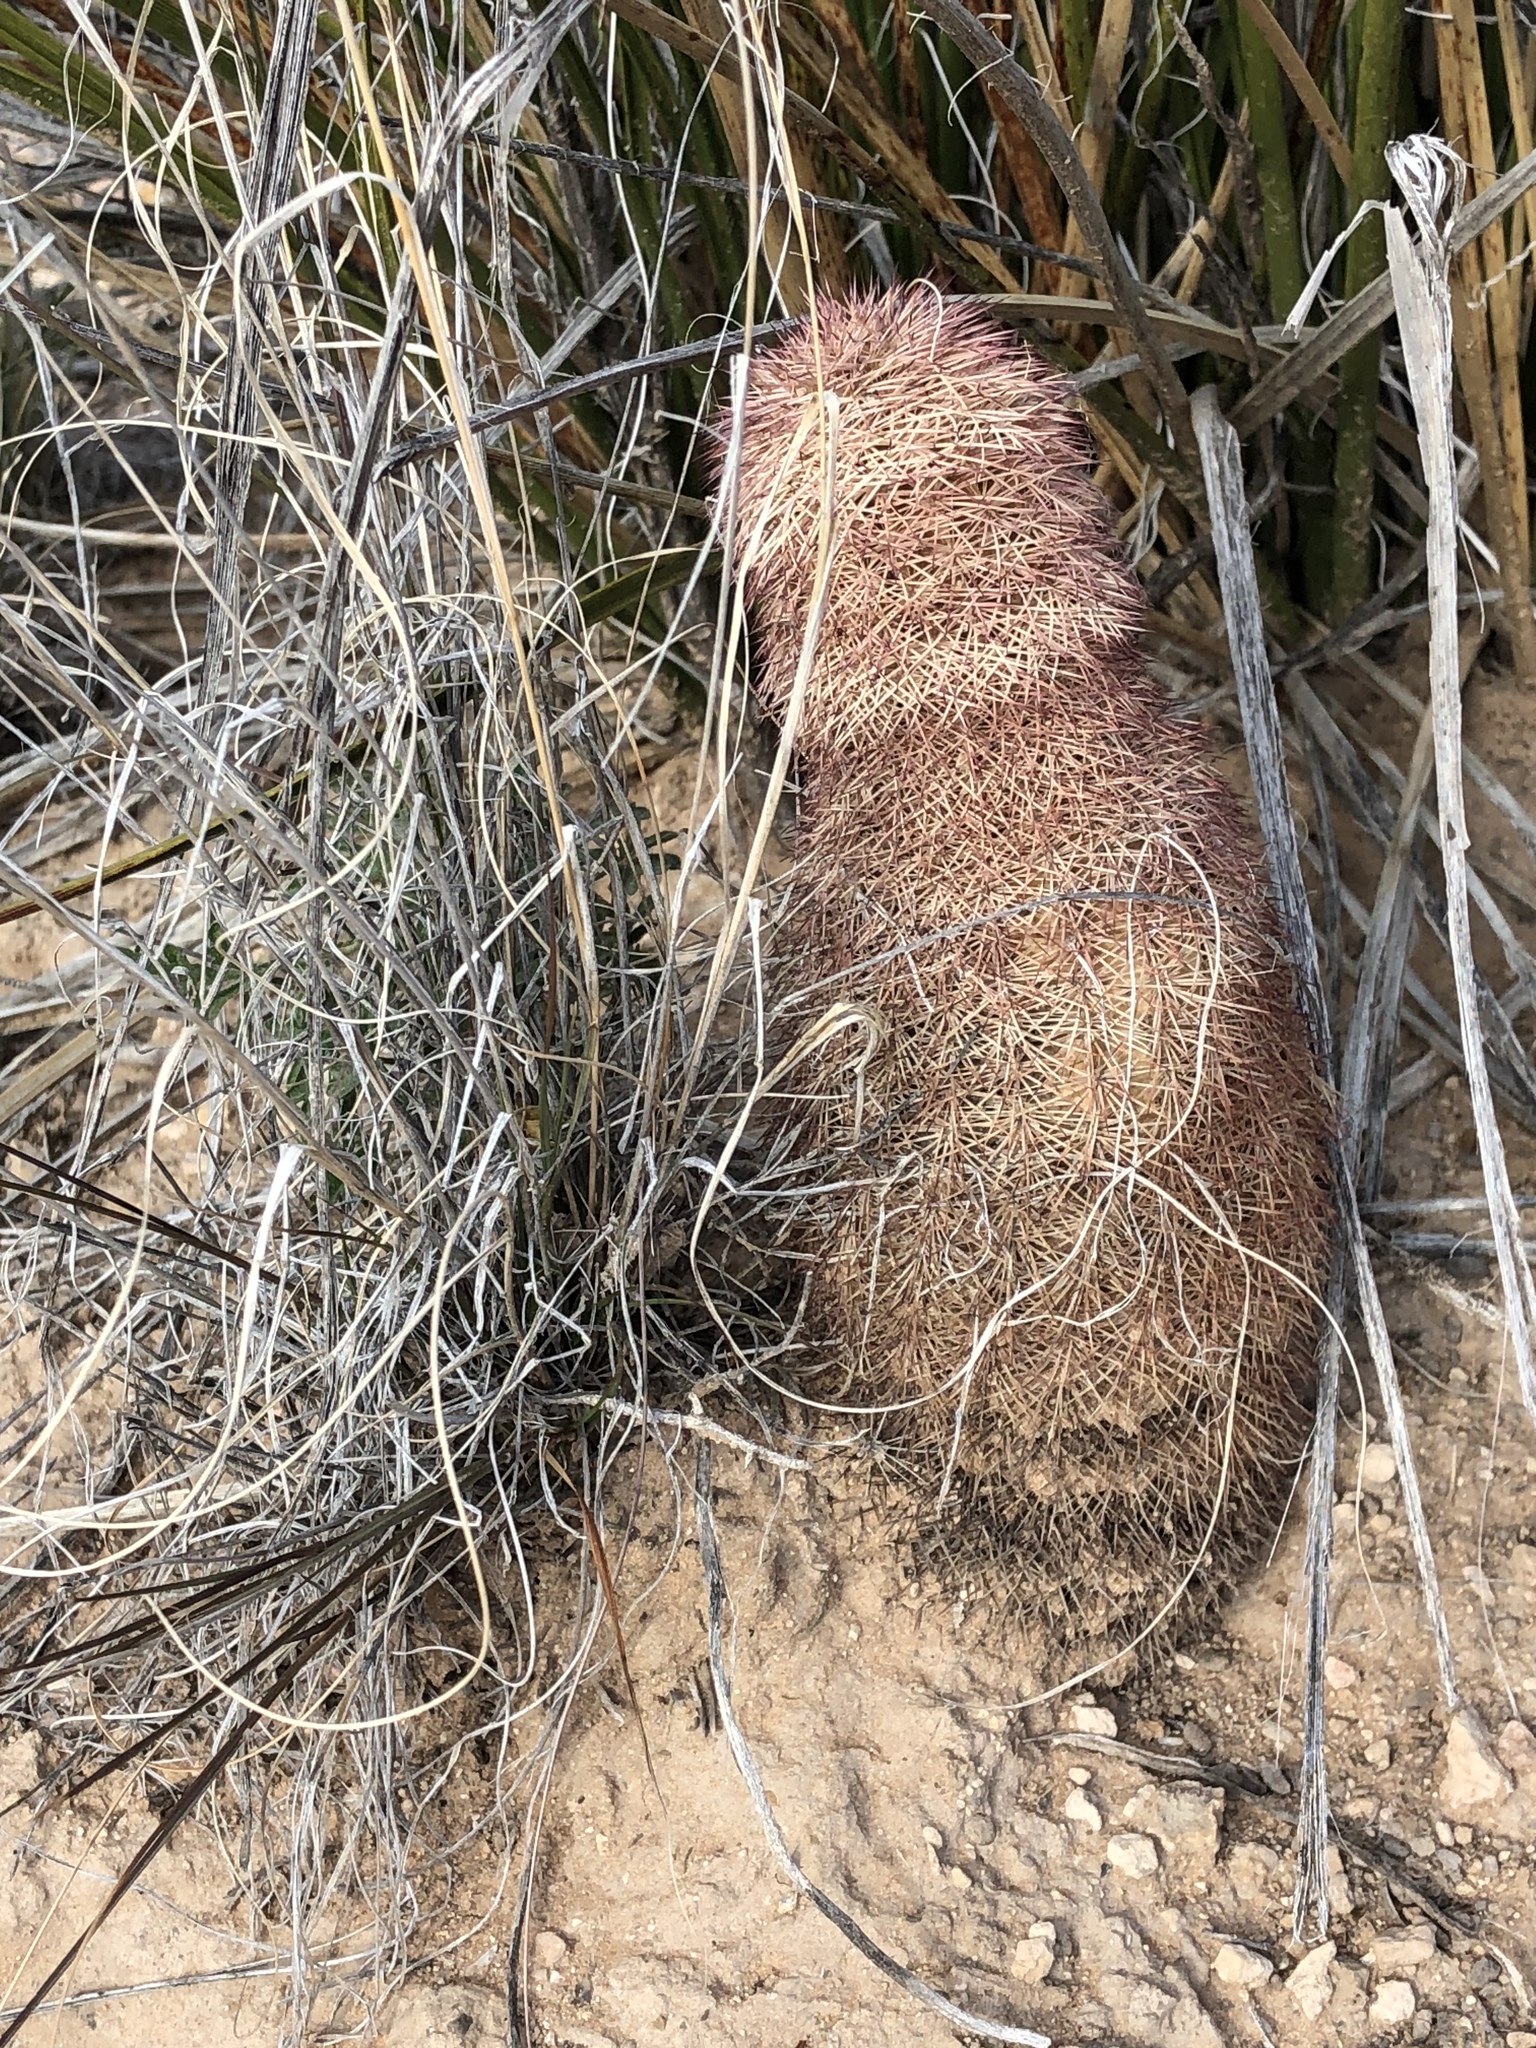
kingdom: Plantae
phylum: Tracheophyta
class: Magnoliopsida
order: Caryophyllales
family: Cactaceae
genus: Echinocereus
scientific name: Echinocereus dasyacanthus
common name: Spiny hedgehog cactus
